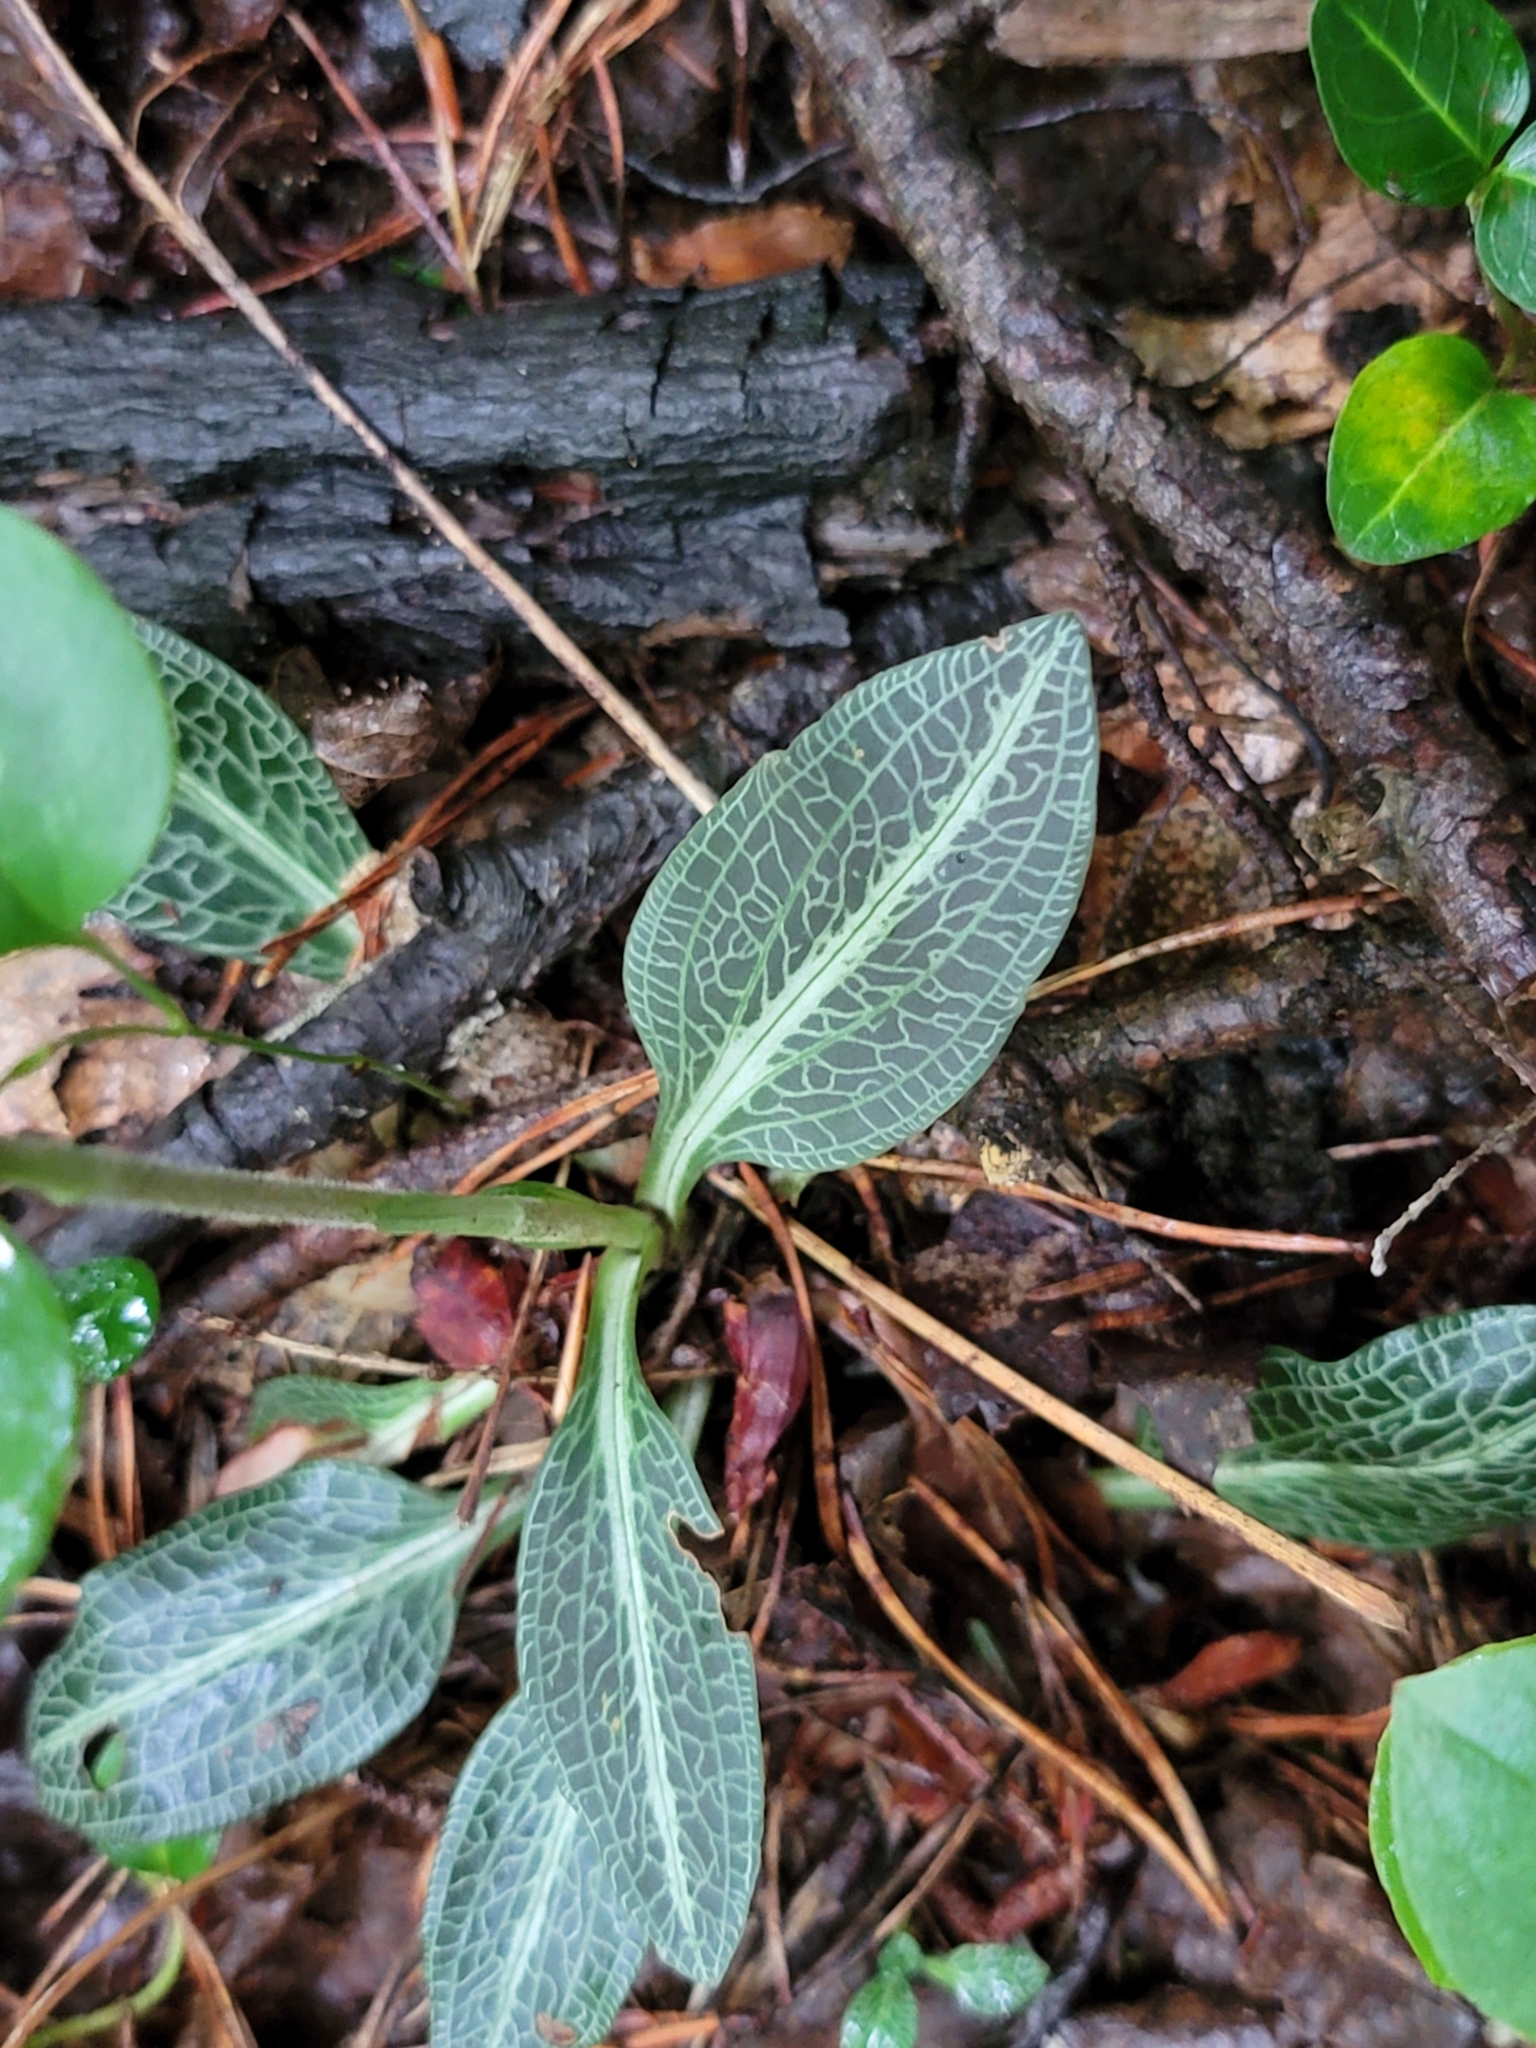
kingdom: Plantae
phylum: Tracheophyta
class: Liliopsida
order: Asparagales
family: Orchidaceae
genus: Goodyera
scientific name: Goodyera pubescens
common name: Downy rattlesnake-plantain
